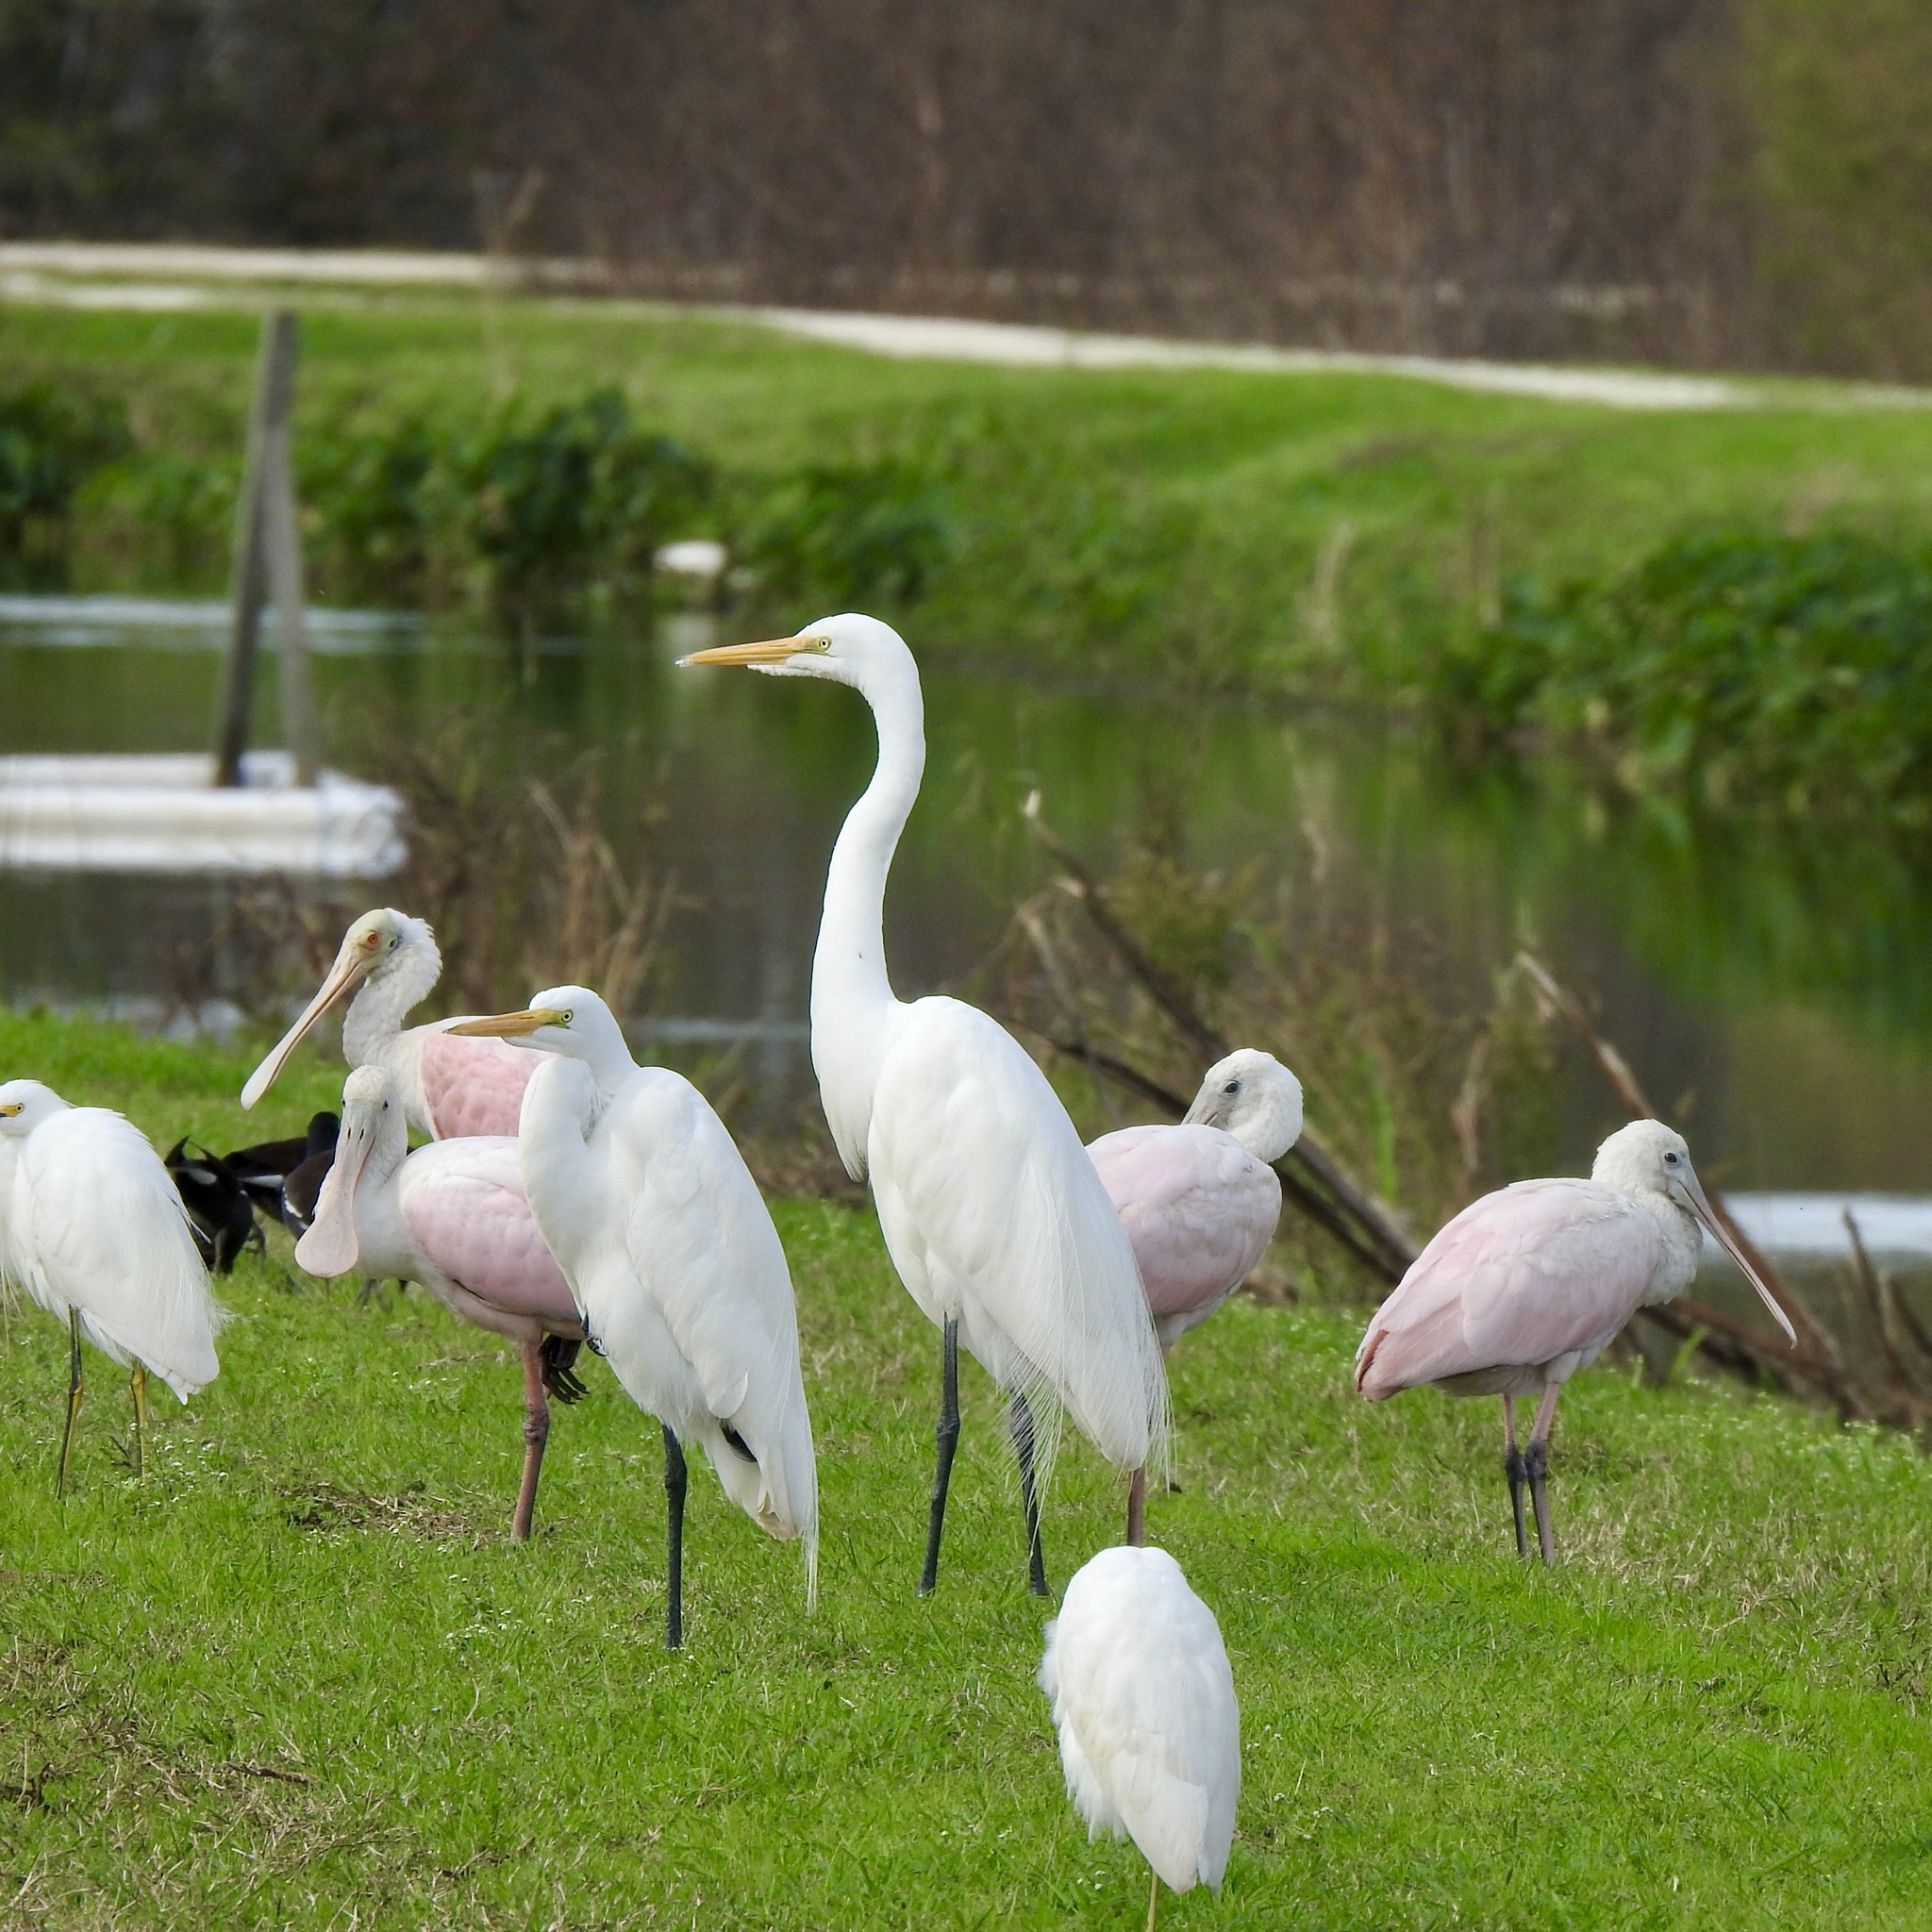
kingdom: Animalia
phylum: Chordata
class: Aves
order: Pelecaniformes
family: Ardeidae
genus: Ardea
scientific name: Ardea alba
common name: Great egret
